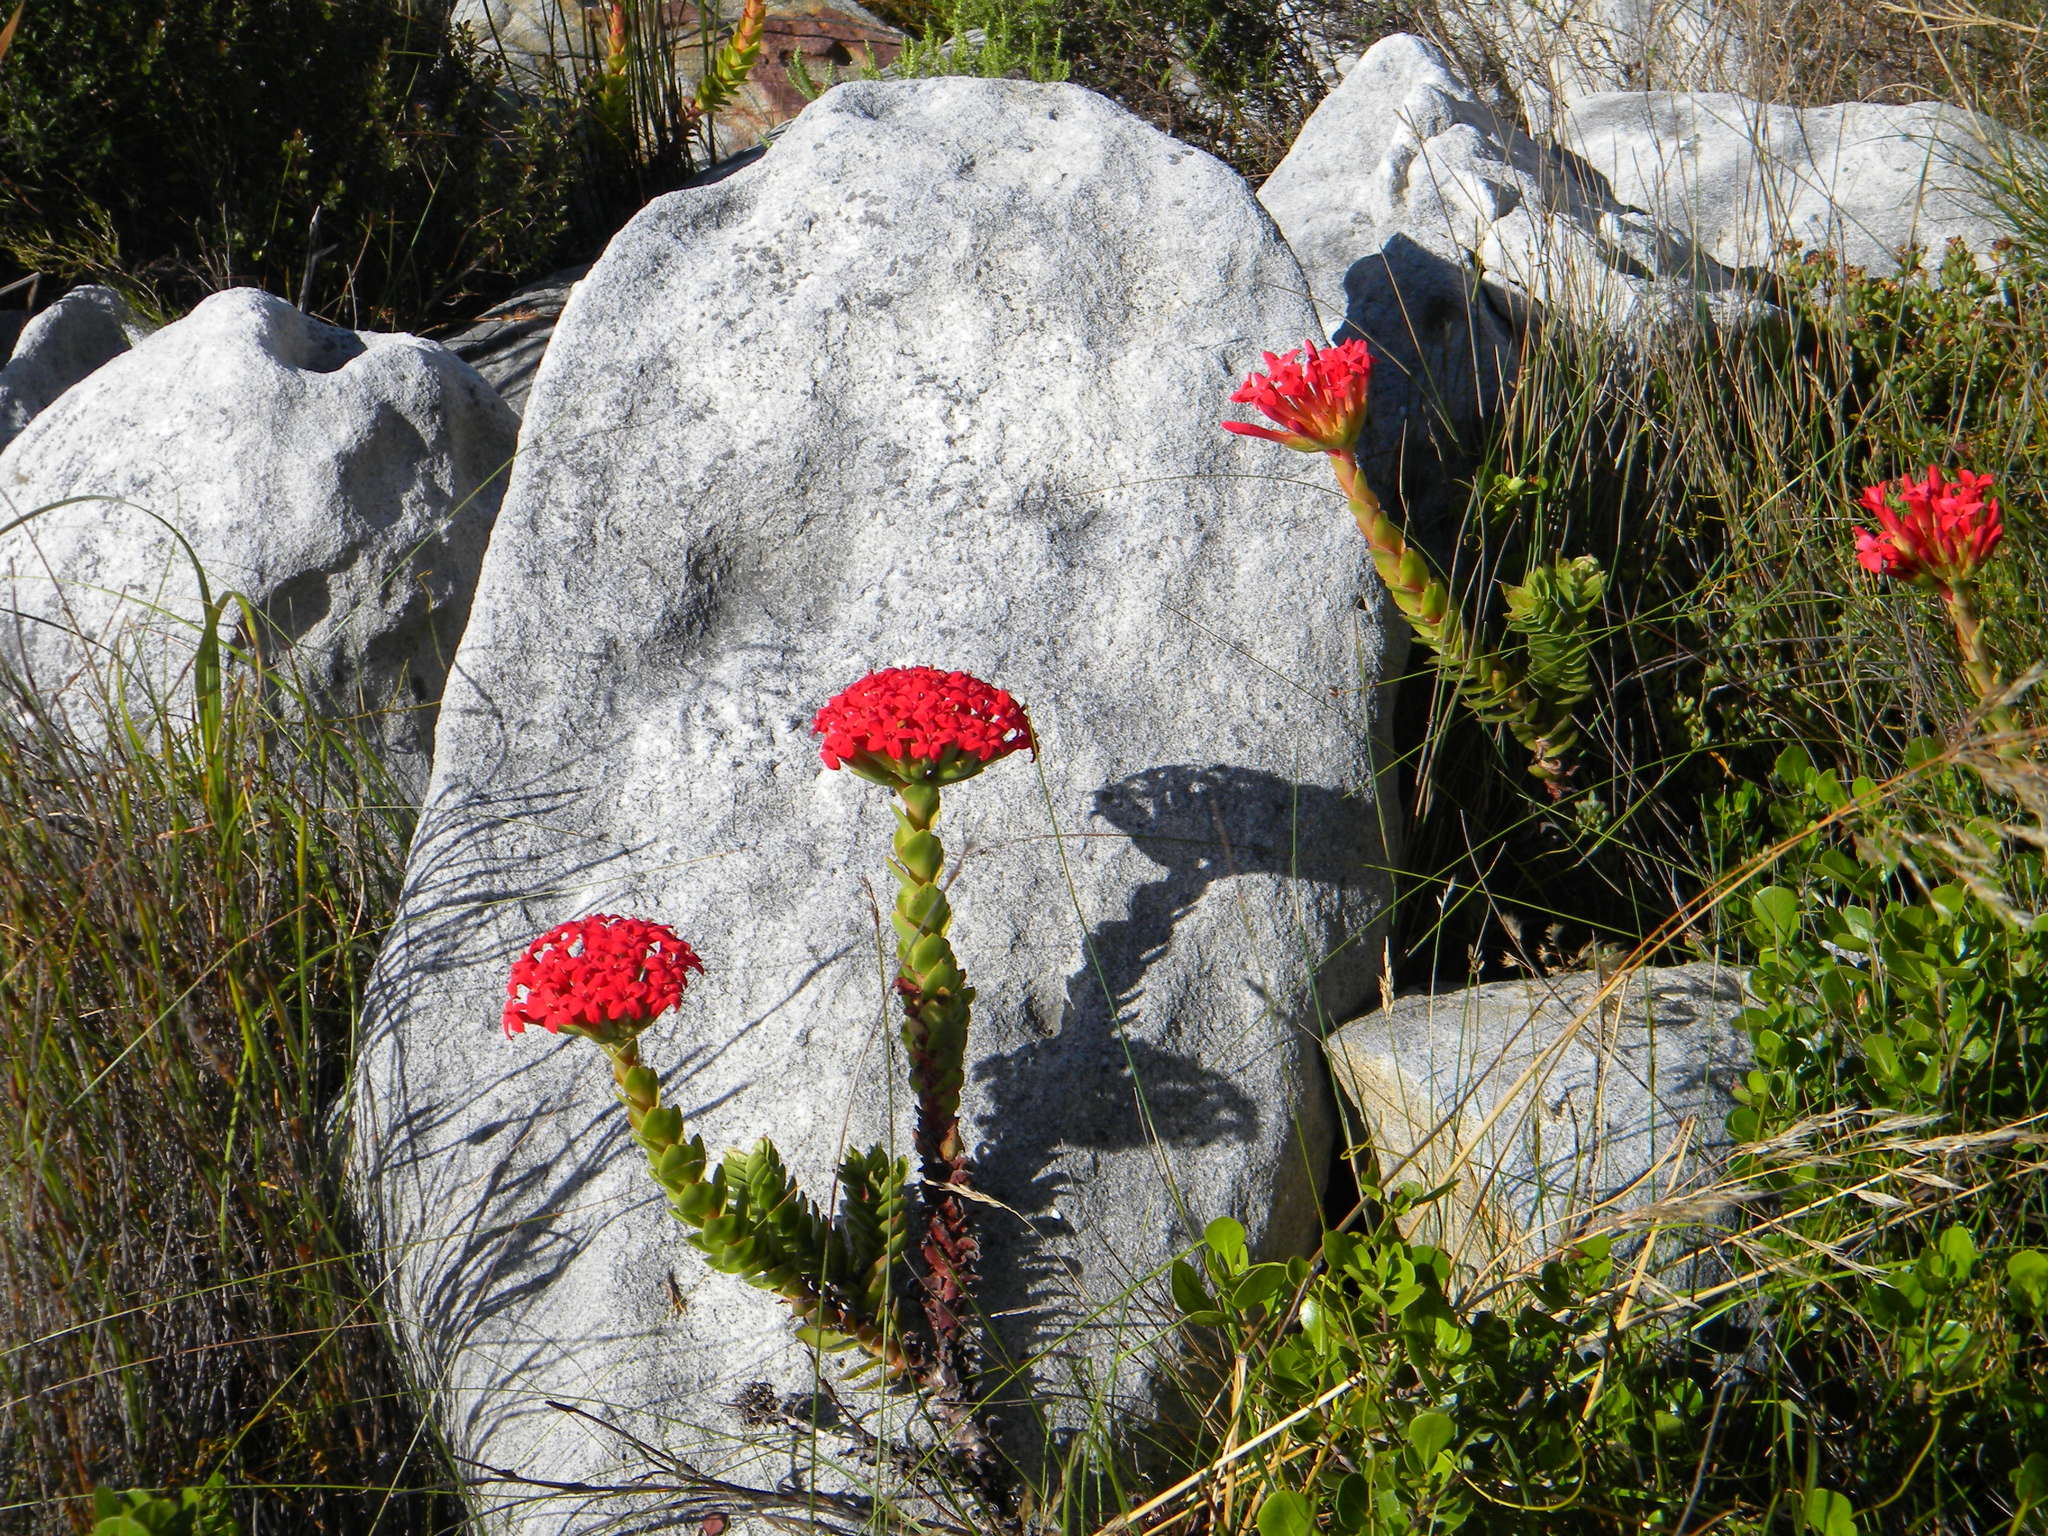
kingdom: Plantae
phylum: Tracheophyta
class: Magnoliopsida
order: Saxifragales
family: Crassulaceae
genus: Crassula
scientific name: Crassula coccinea
